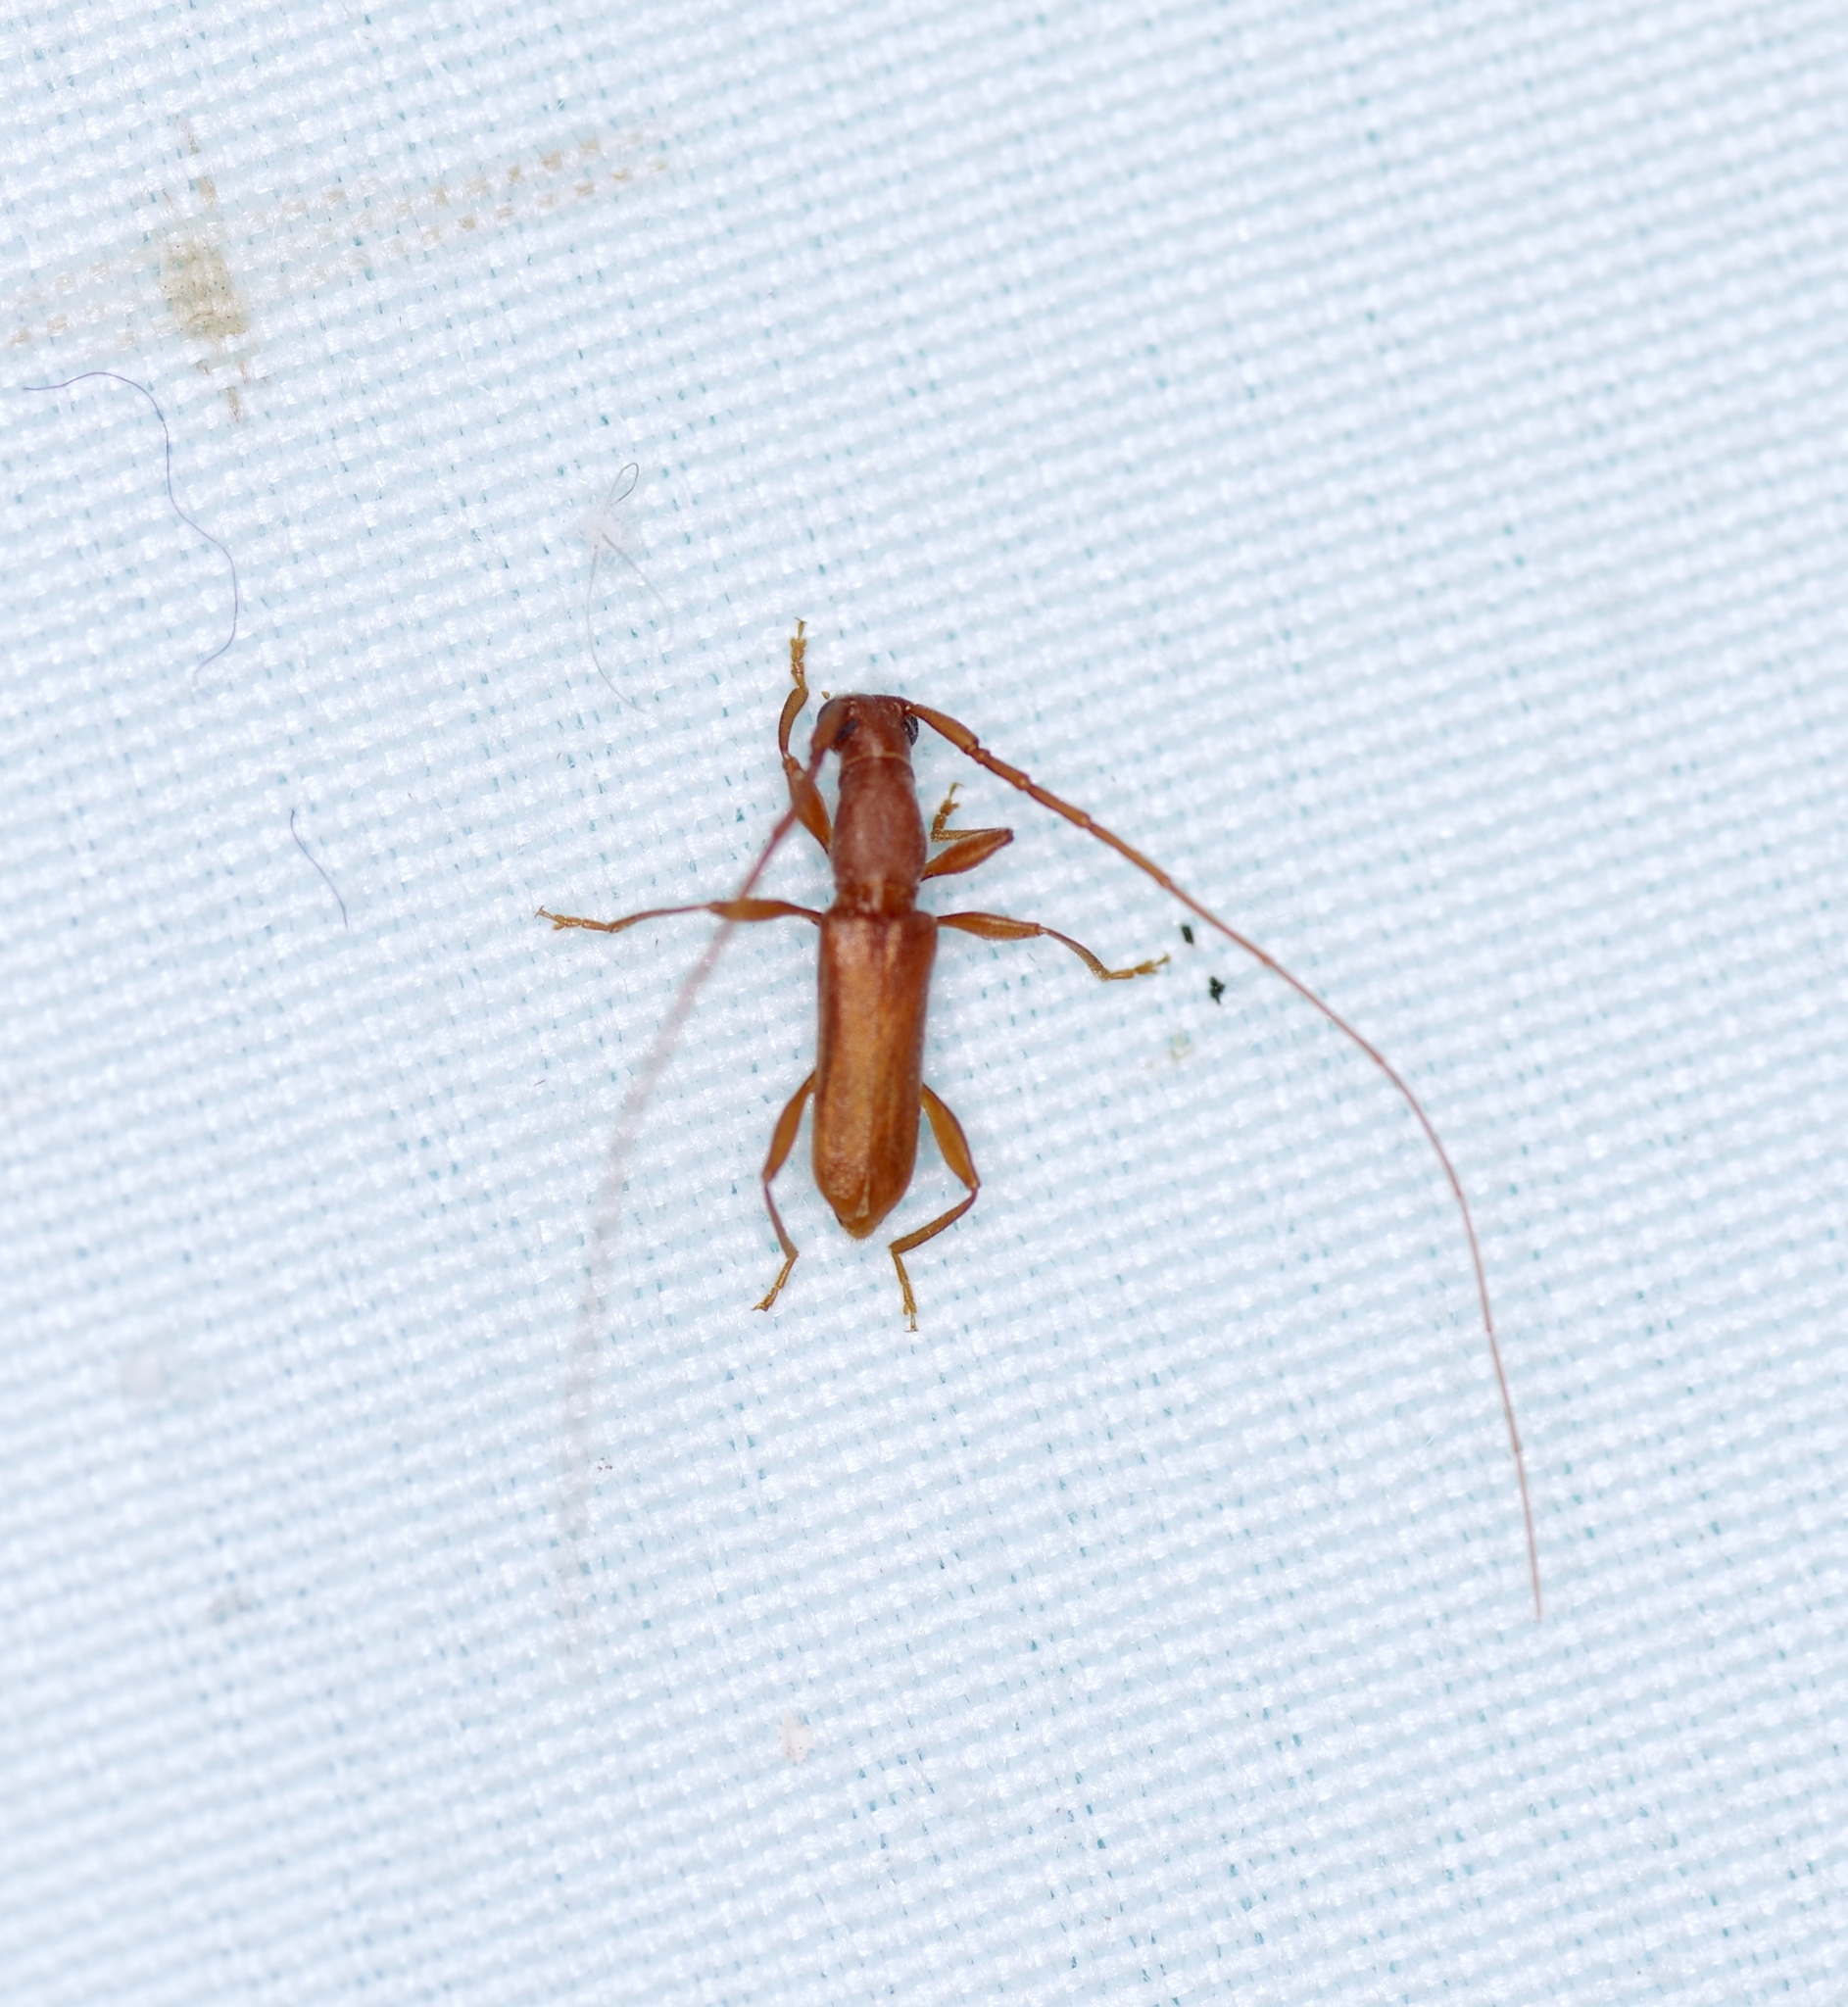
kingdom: Animalia
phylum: Arthropoda
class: Insecta
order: Coleoptera
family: Cerambycidae
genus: Hypexilis
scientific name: Hypexilis pallida
